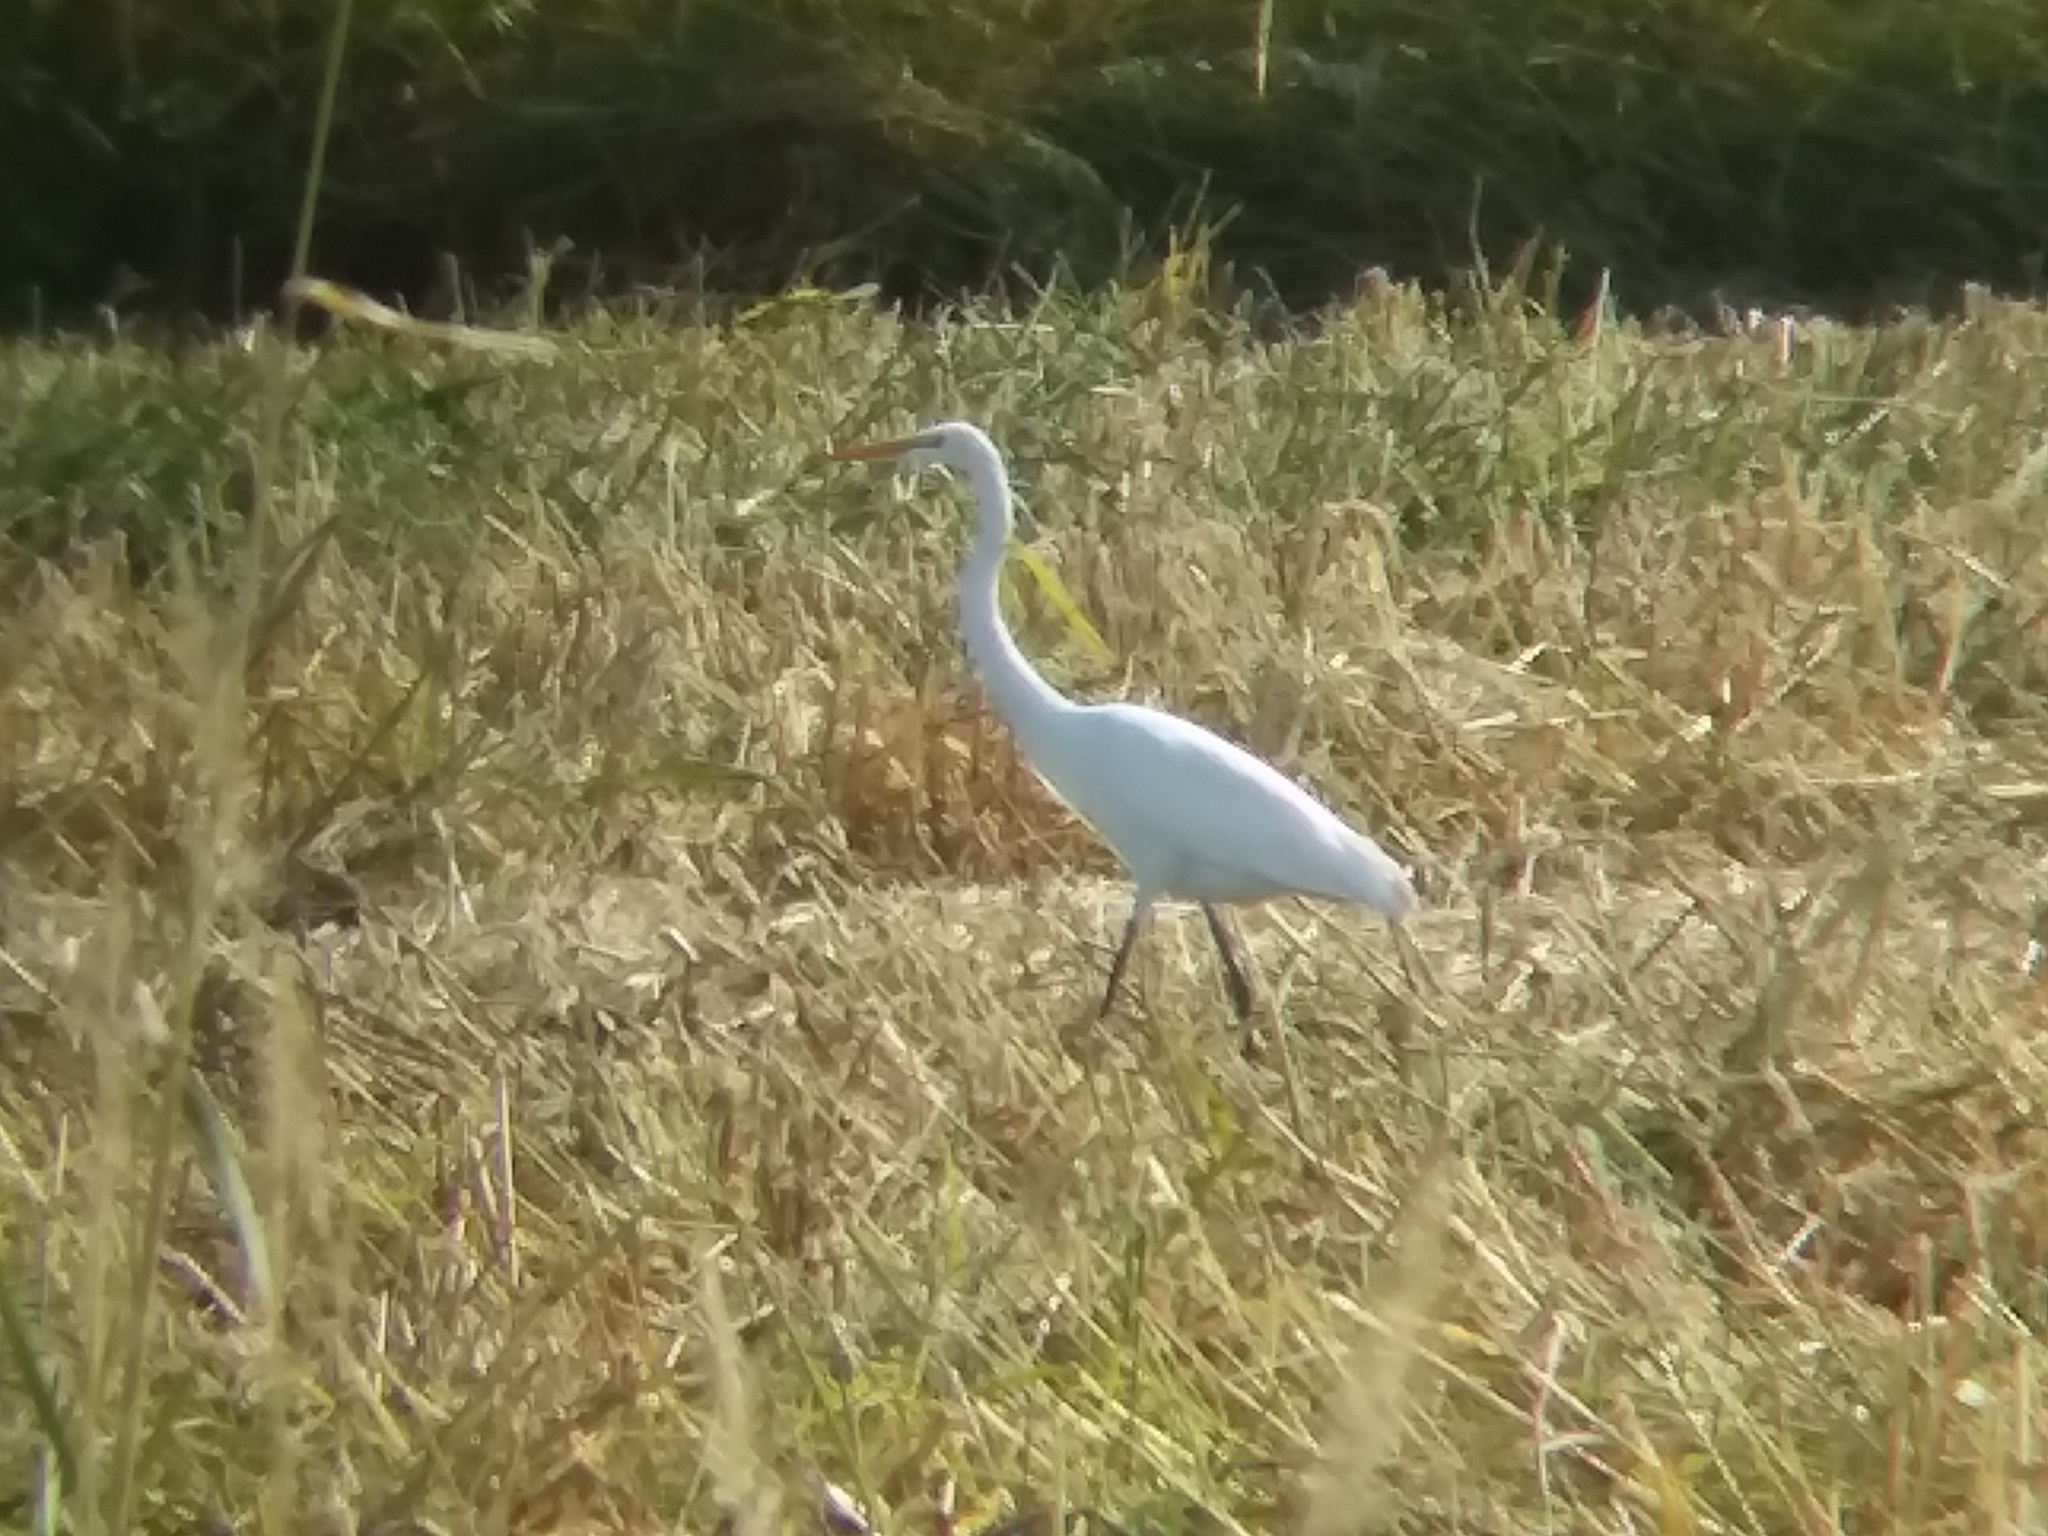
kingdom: Animalia
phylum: Chordata
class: Aves
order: Pelecaniformes
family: Ardeidae
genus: Ardea
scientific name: Ardea alba
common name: Great egret
